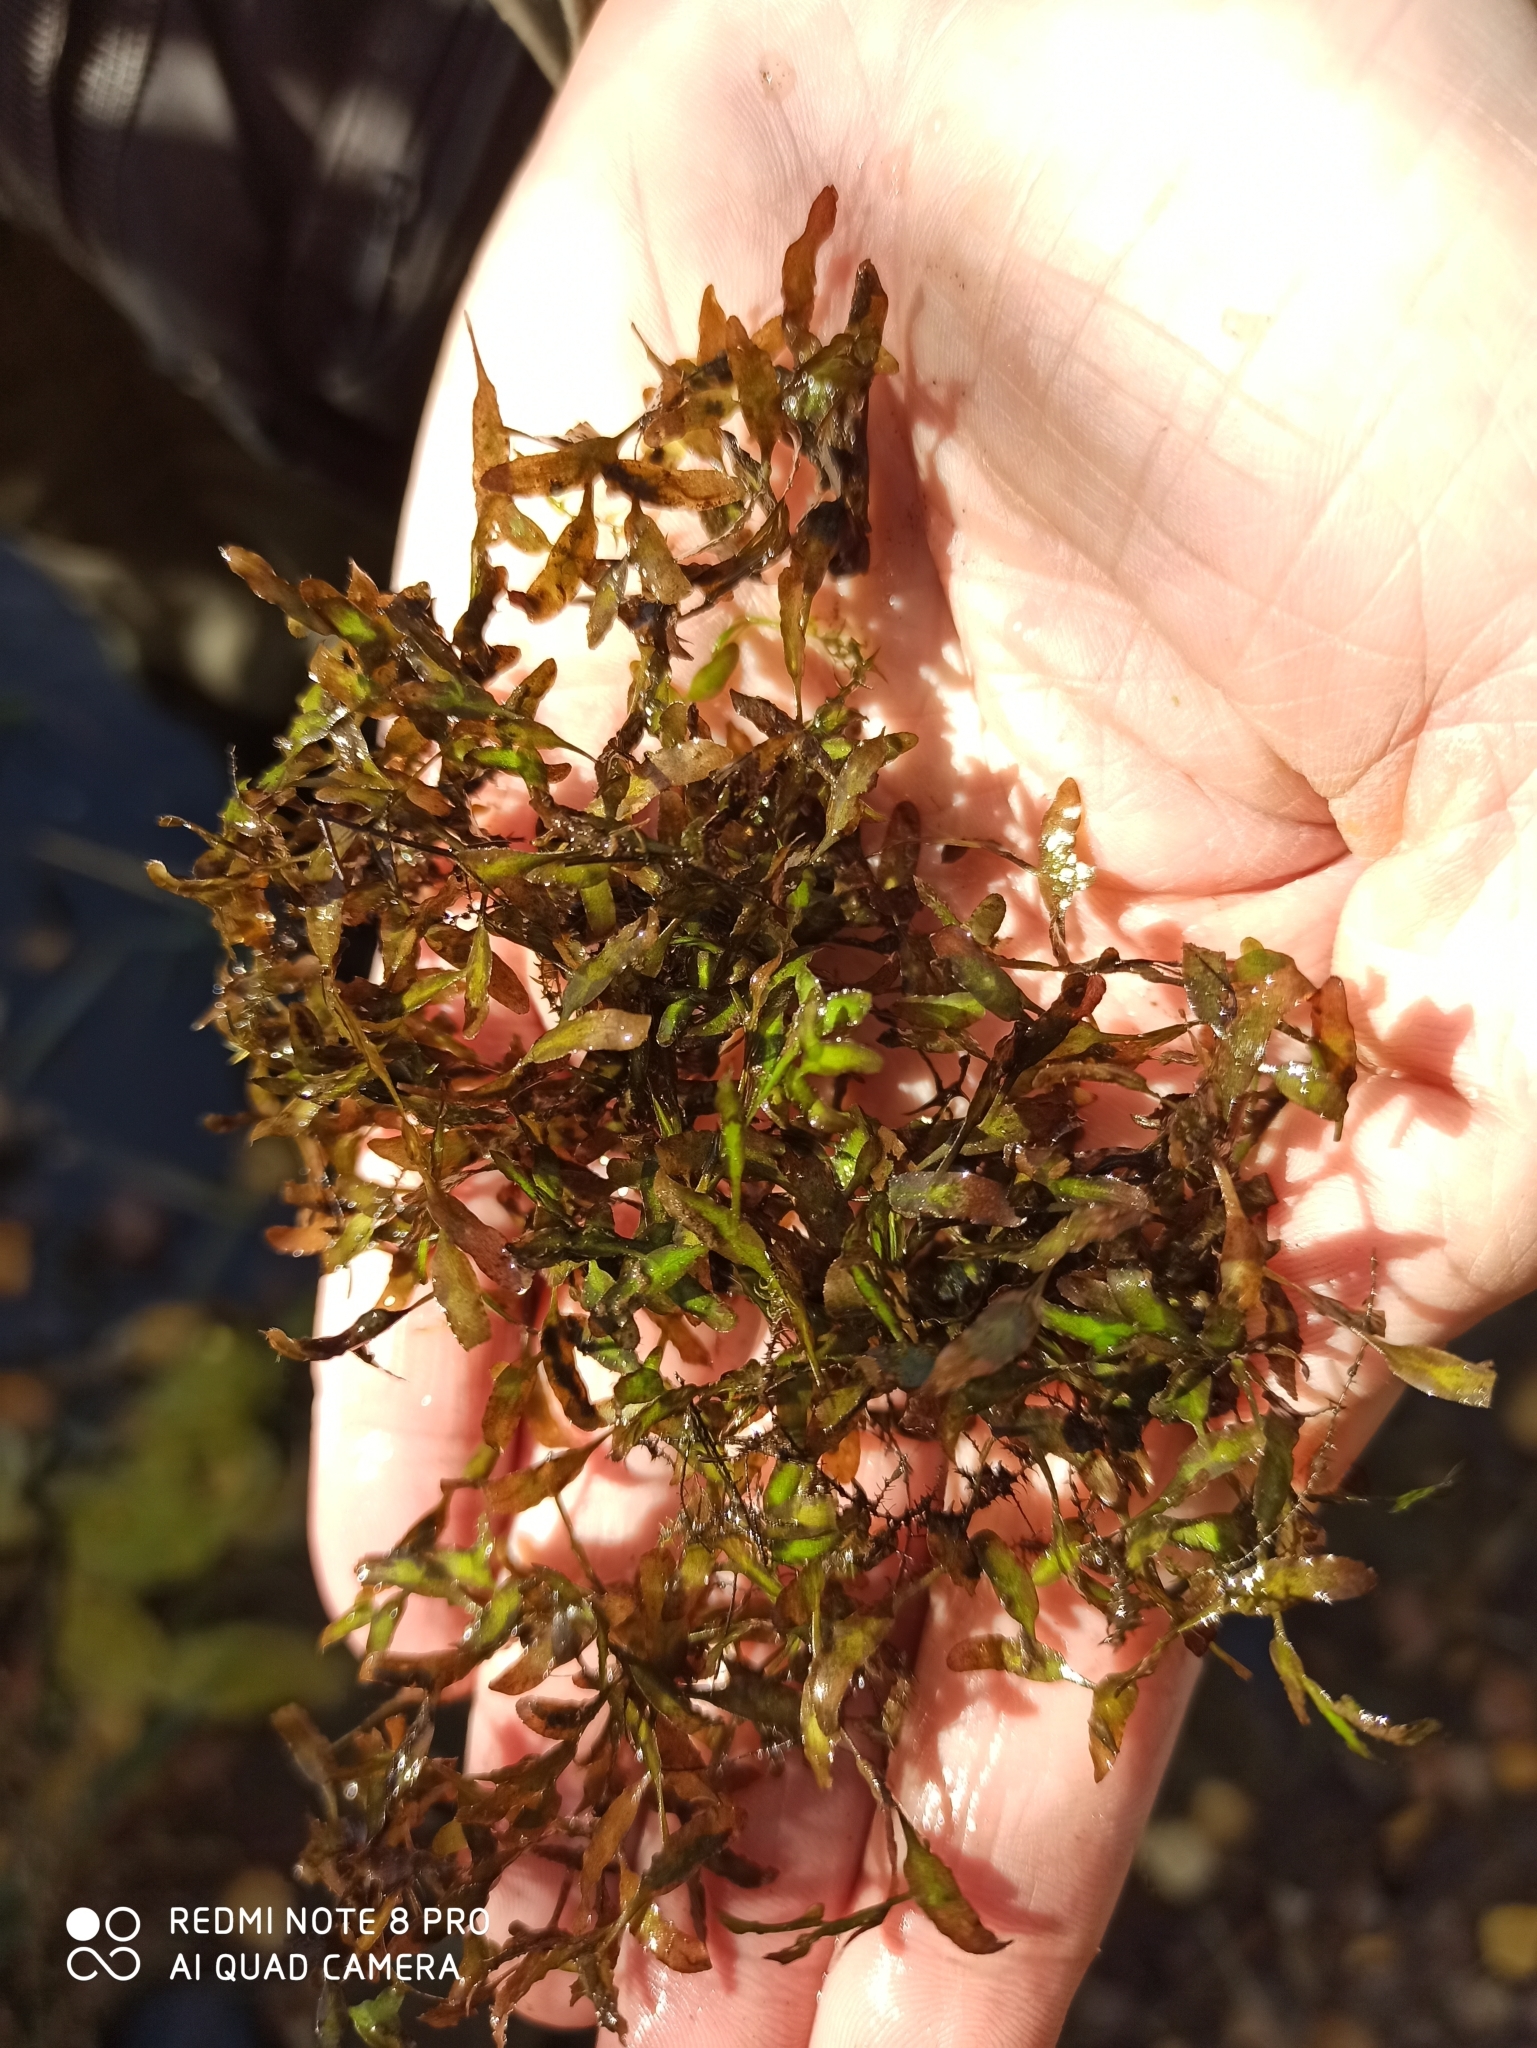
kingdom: Plantae
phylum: Tracheophyta
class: Liliopsida
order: Alismatales
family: Araceae
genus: Lemna
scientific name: Lemna trisulca
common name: Ivy-leaved duckweed
